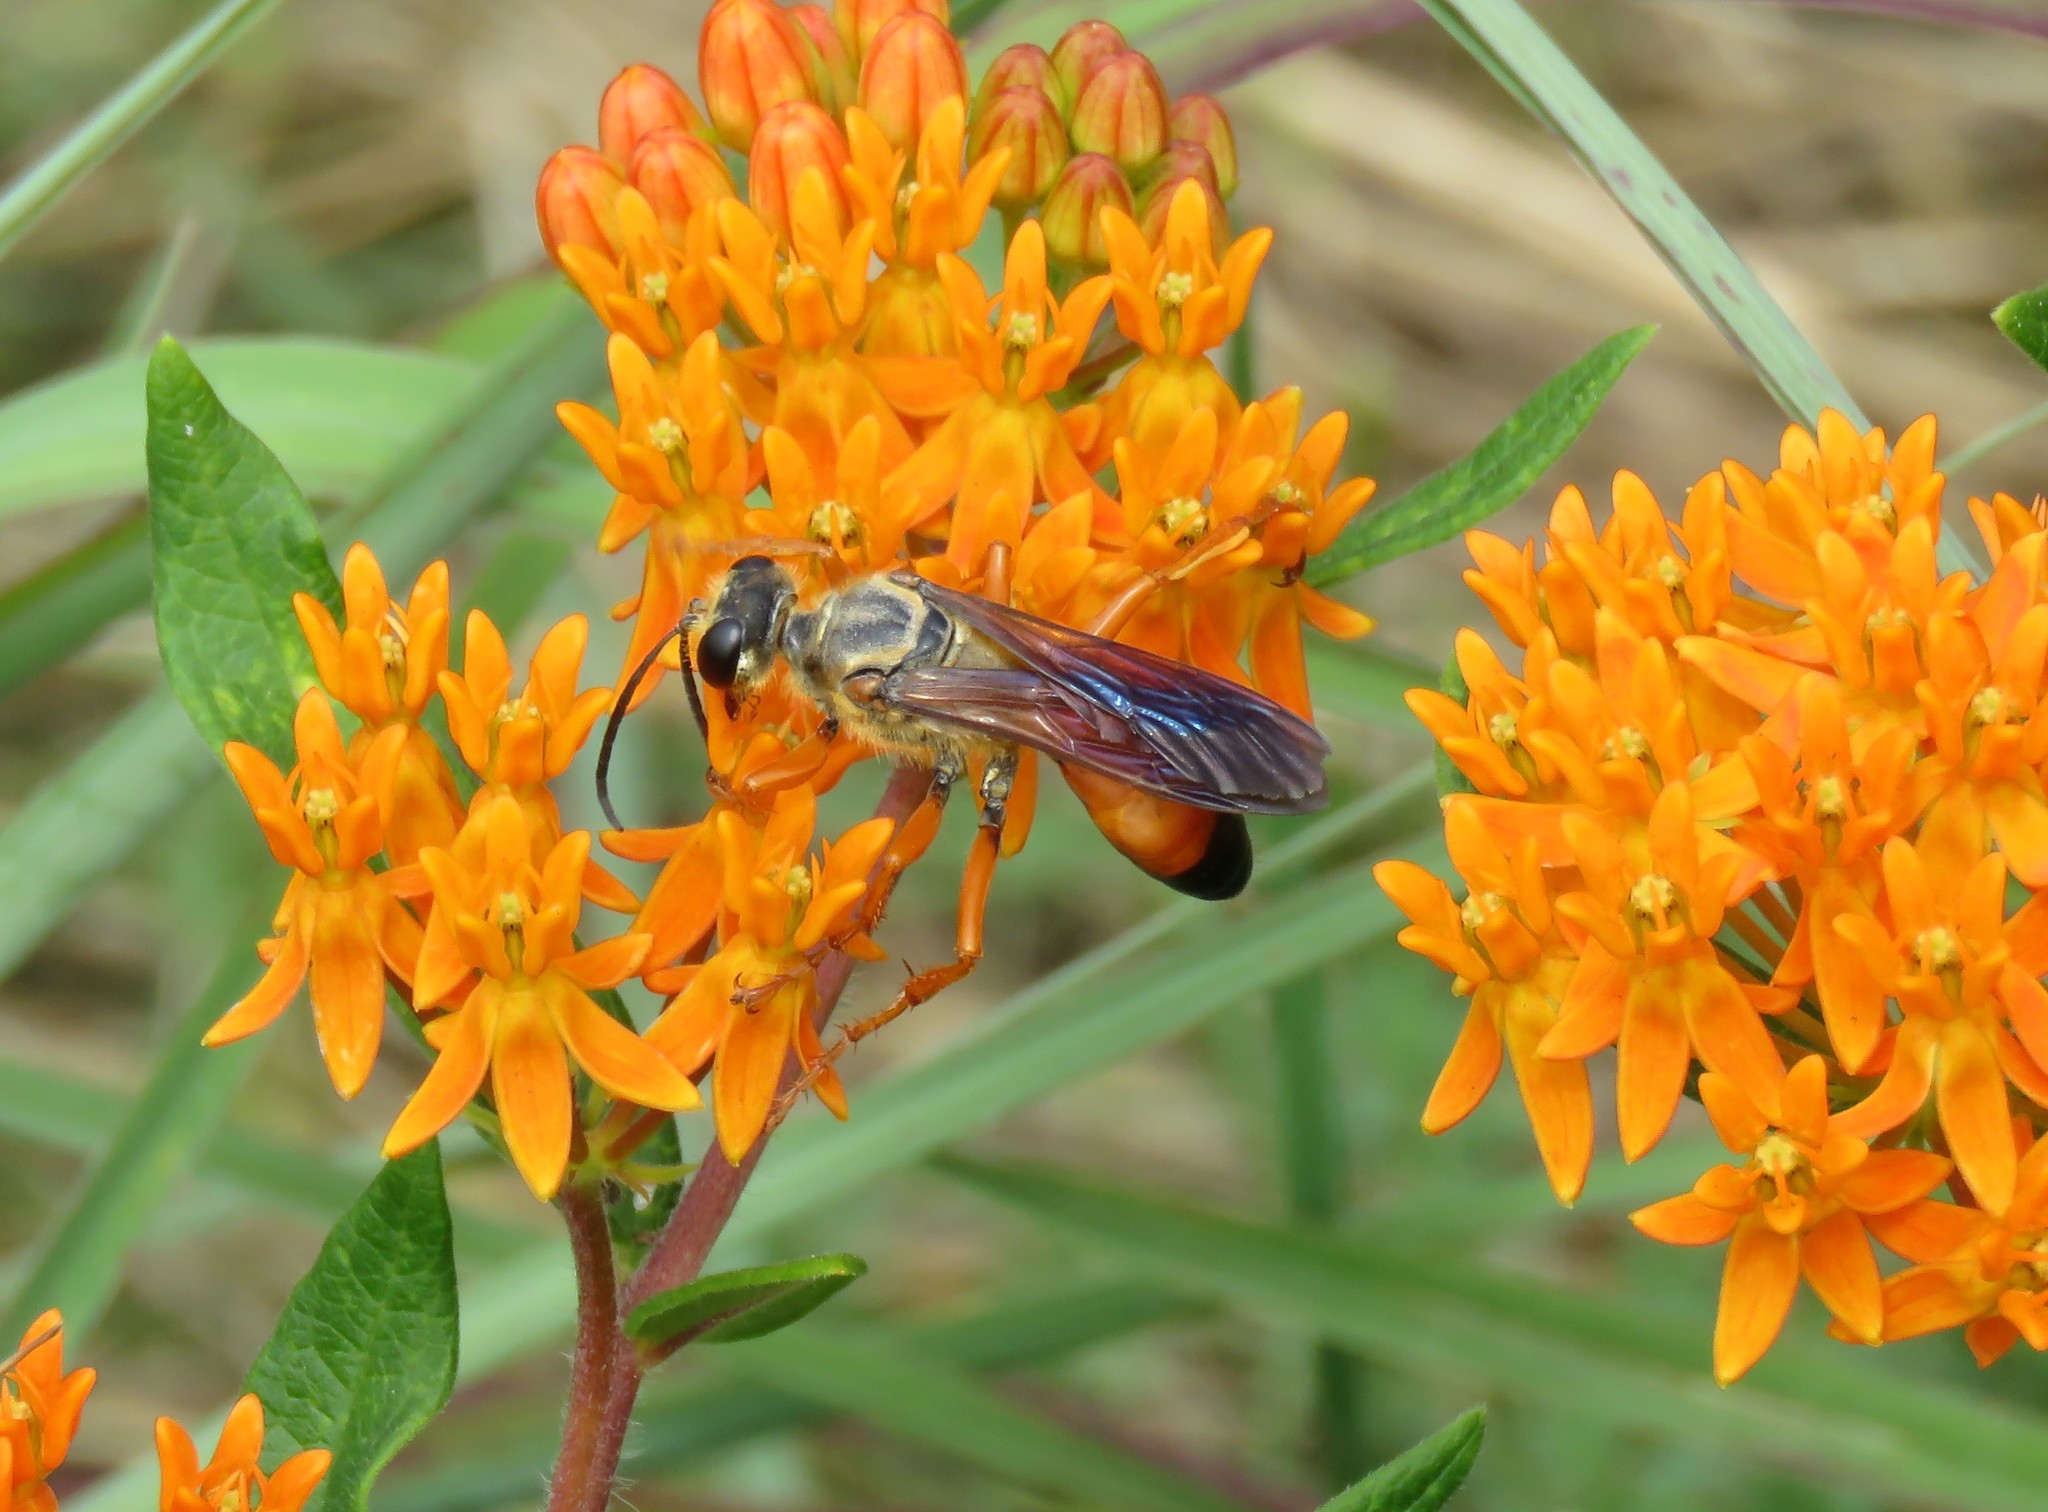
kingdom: Animalia
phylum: Arthropoda
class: Insecta
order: Hymenoptera
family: Sphecidae
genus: Sphex
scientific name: Sphex ichneumoneus
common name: Great golden digger wasp
